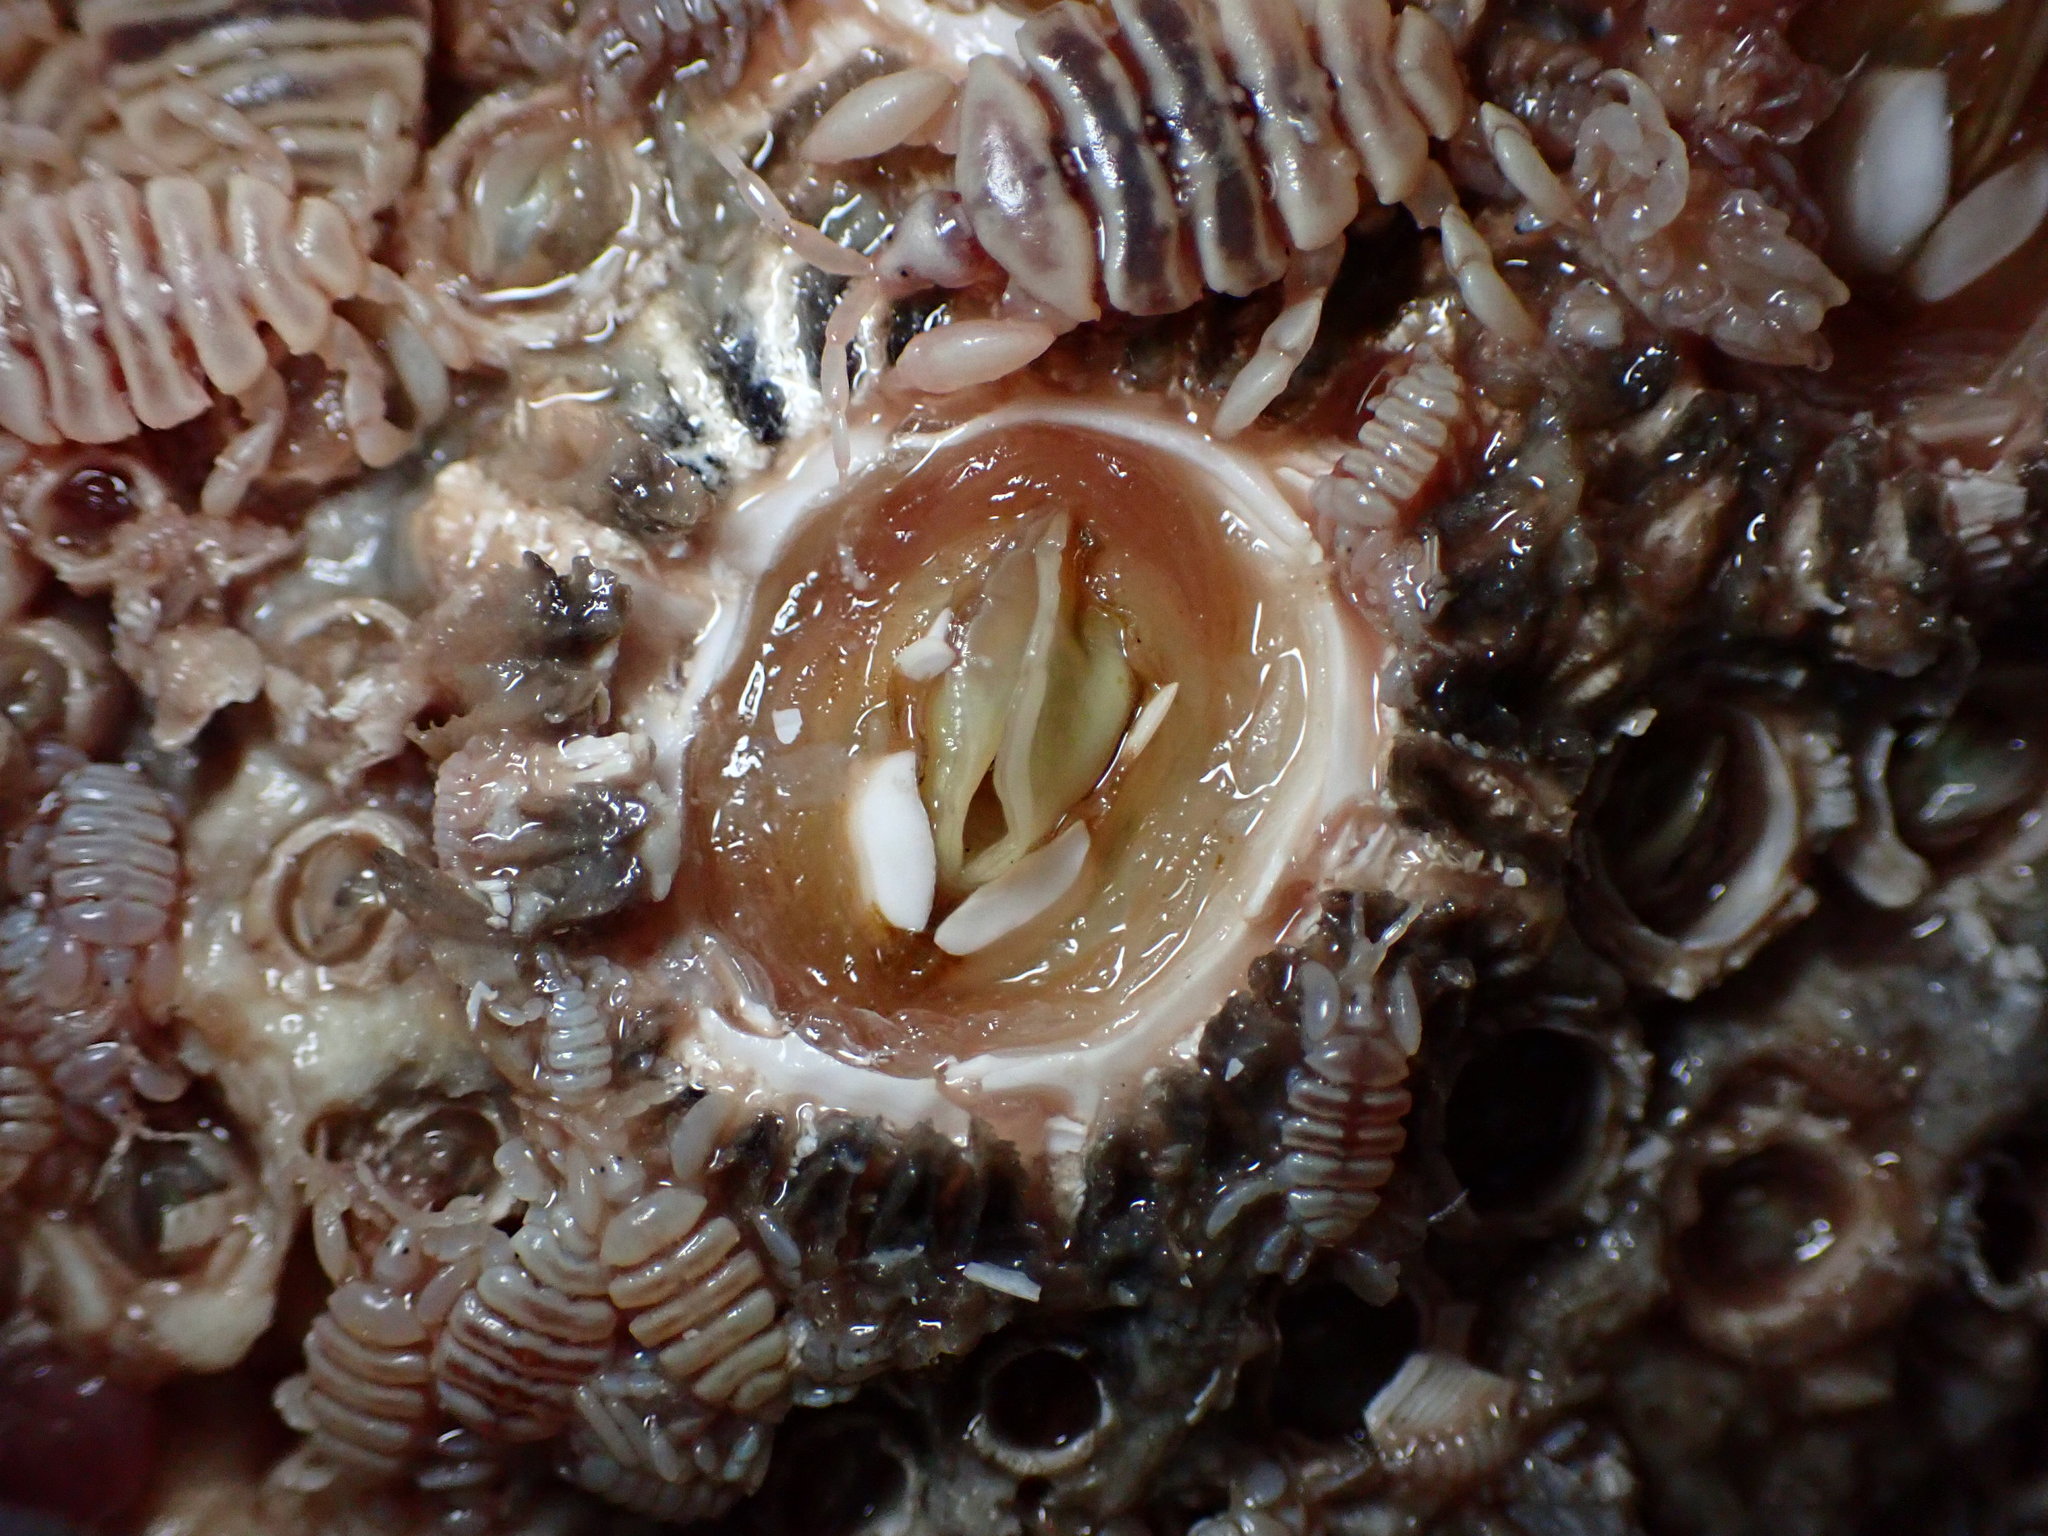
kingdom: Animalia
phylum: Arthropoda
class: Maxillopoda
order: Sessilia
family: Coronulidae
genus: Cryptolepas
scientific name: Cryptolepas rhachianecti
